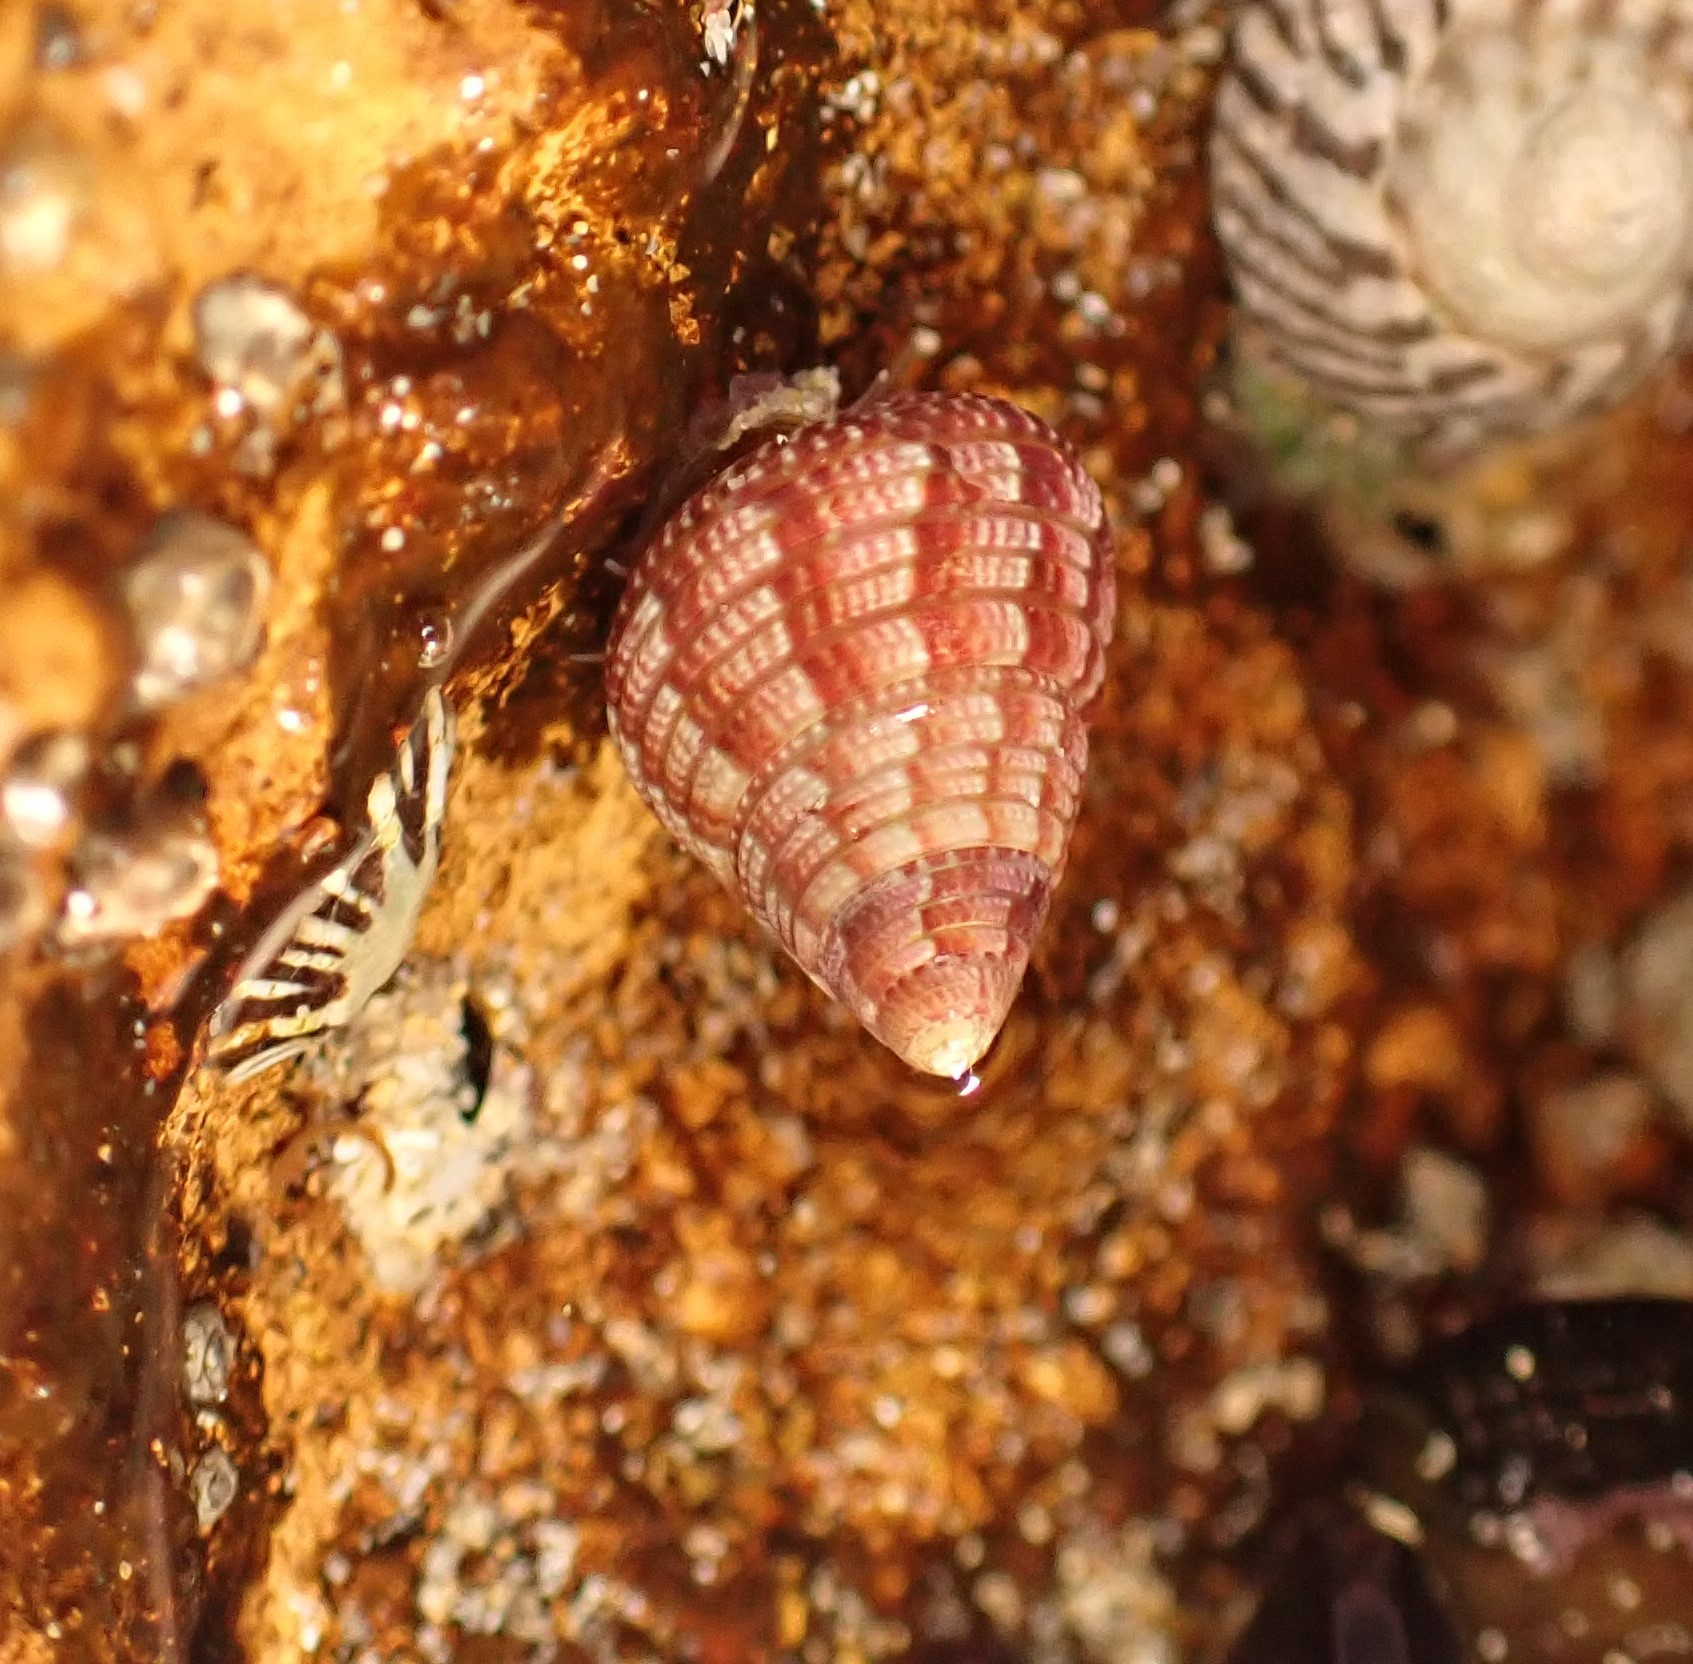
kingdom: Animalia
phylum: Mollusca
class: Gastropoda
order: Trochida
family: Trochidae
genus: Prothalotia
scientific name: Prothalotia pulcherrima
